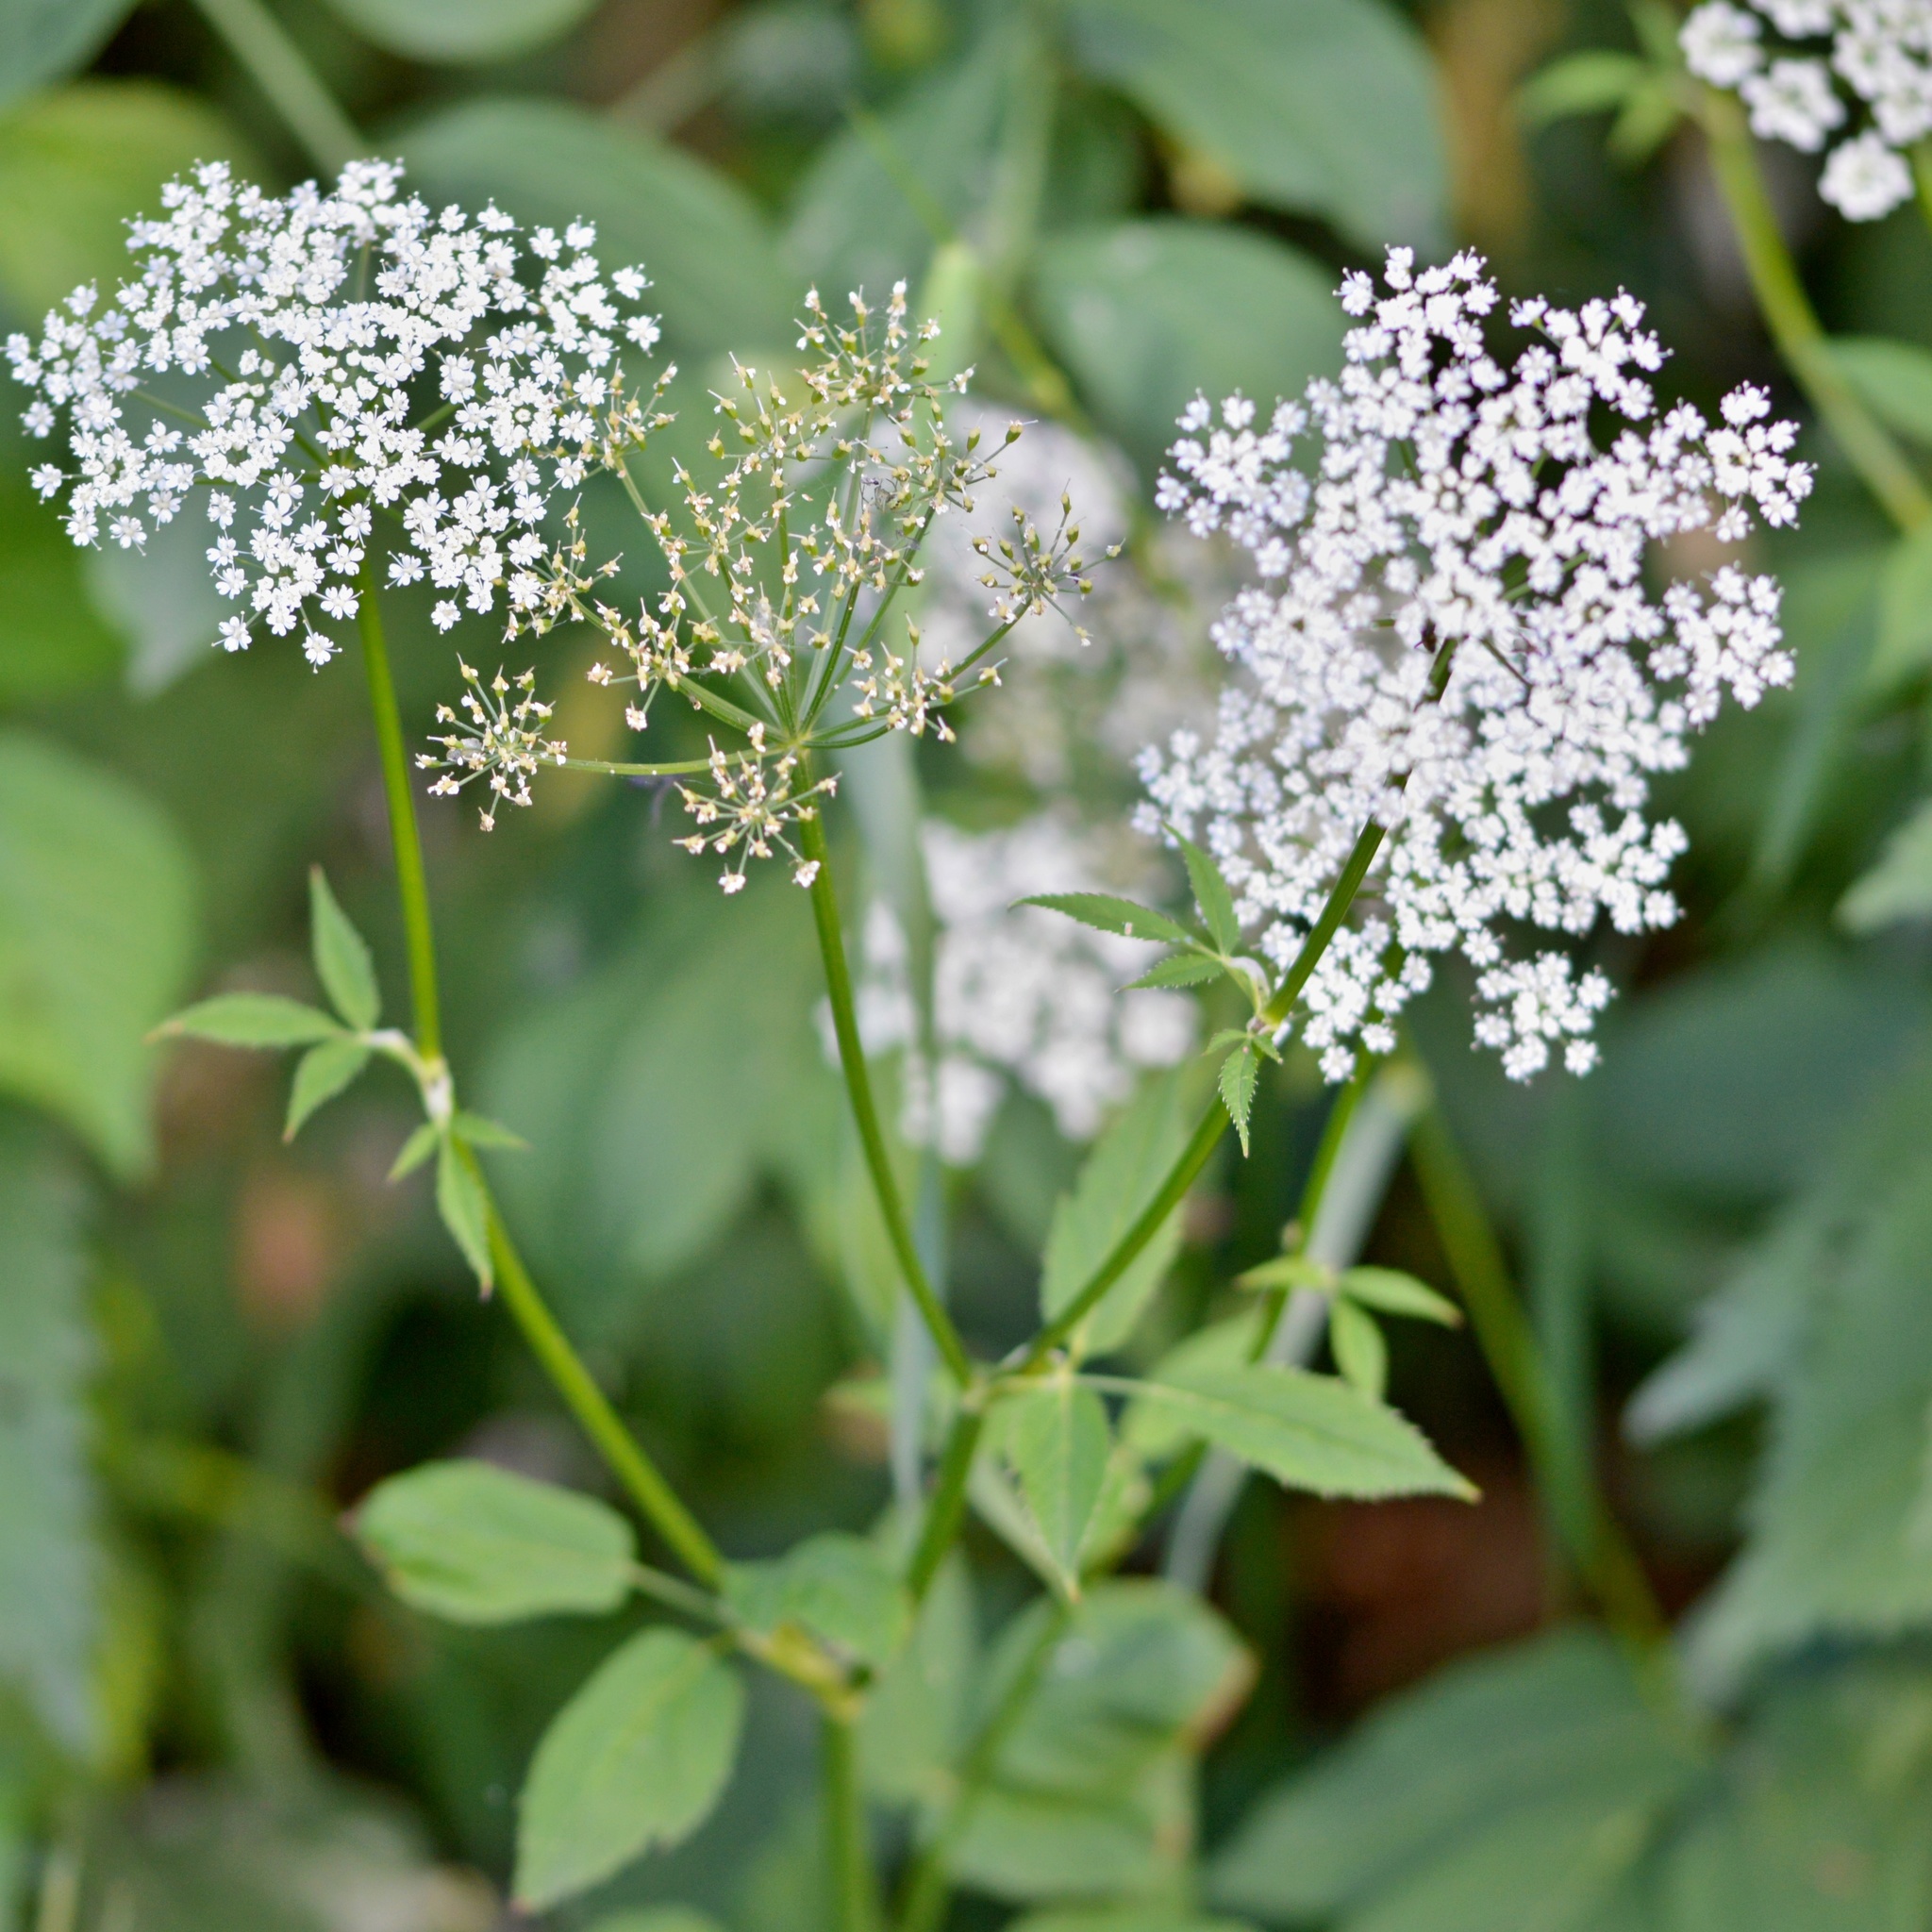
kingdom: Plantae
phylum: Tracheophyta
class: Magnoliopsida
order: Apiales
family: Apiaceae
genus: Aegopodium
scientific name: Aegopodium podagraria
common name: Ground-elder
